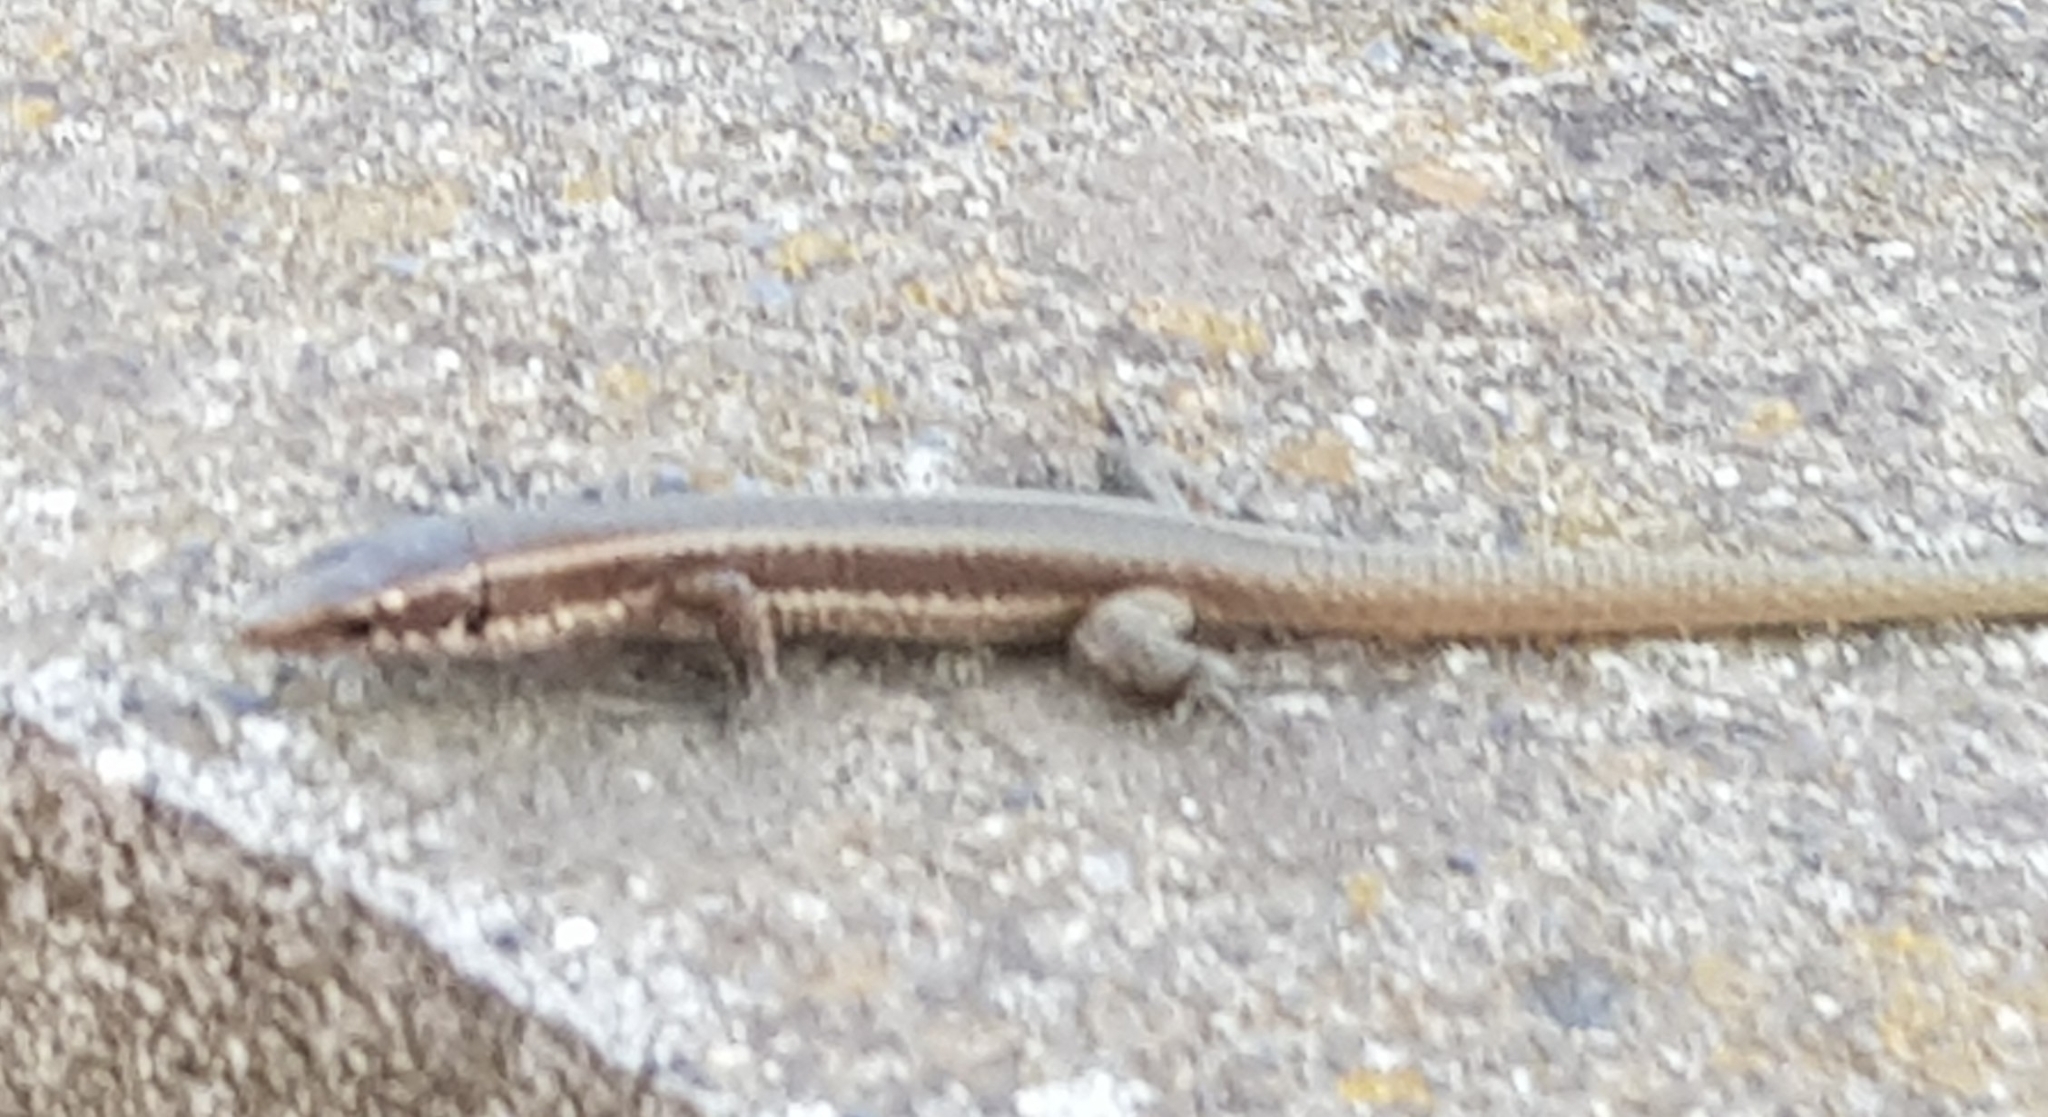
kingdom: Animalia
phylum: Chordata
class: Squamata
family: Lacertidae
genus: Teira
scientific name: Teira dugesii
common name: Madeira lizard
